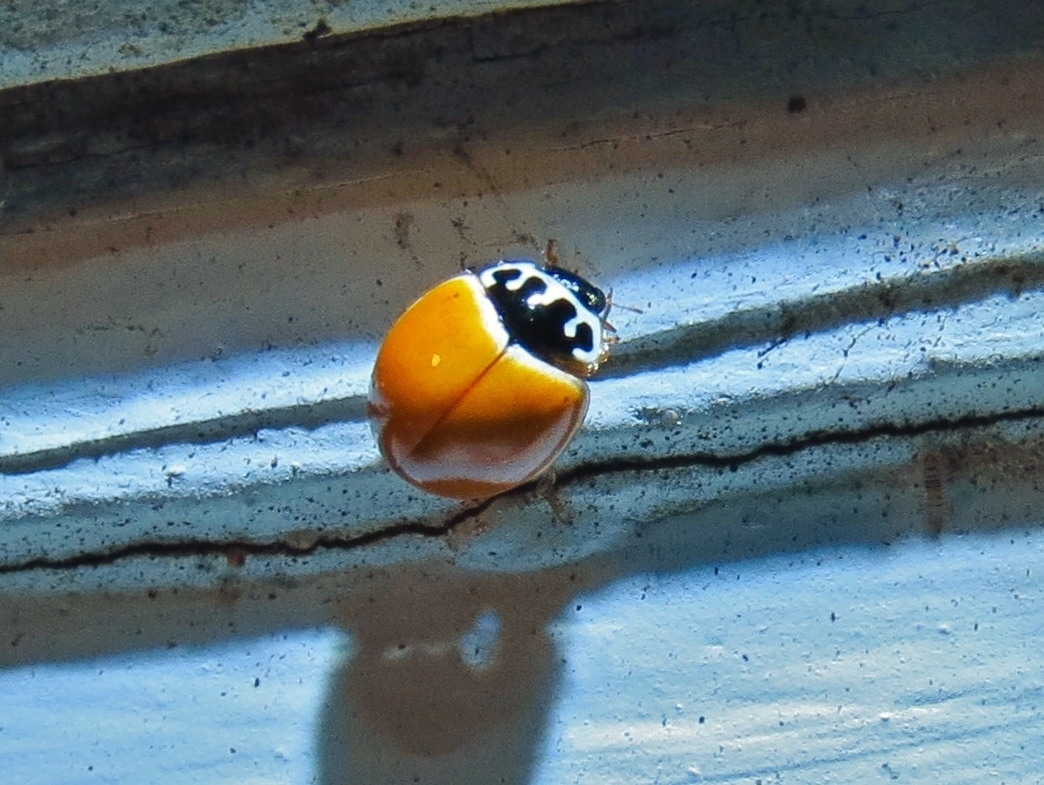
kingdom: Animalia
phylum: Arthropoda
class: Insecta
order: Coleoptera
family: Coccinellidae
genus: Cycloneda
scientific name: Cycloneda munda
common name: Polished lady beetle
